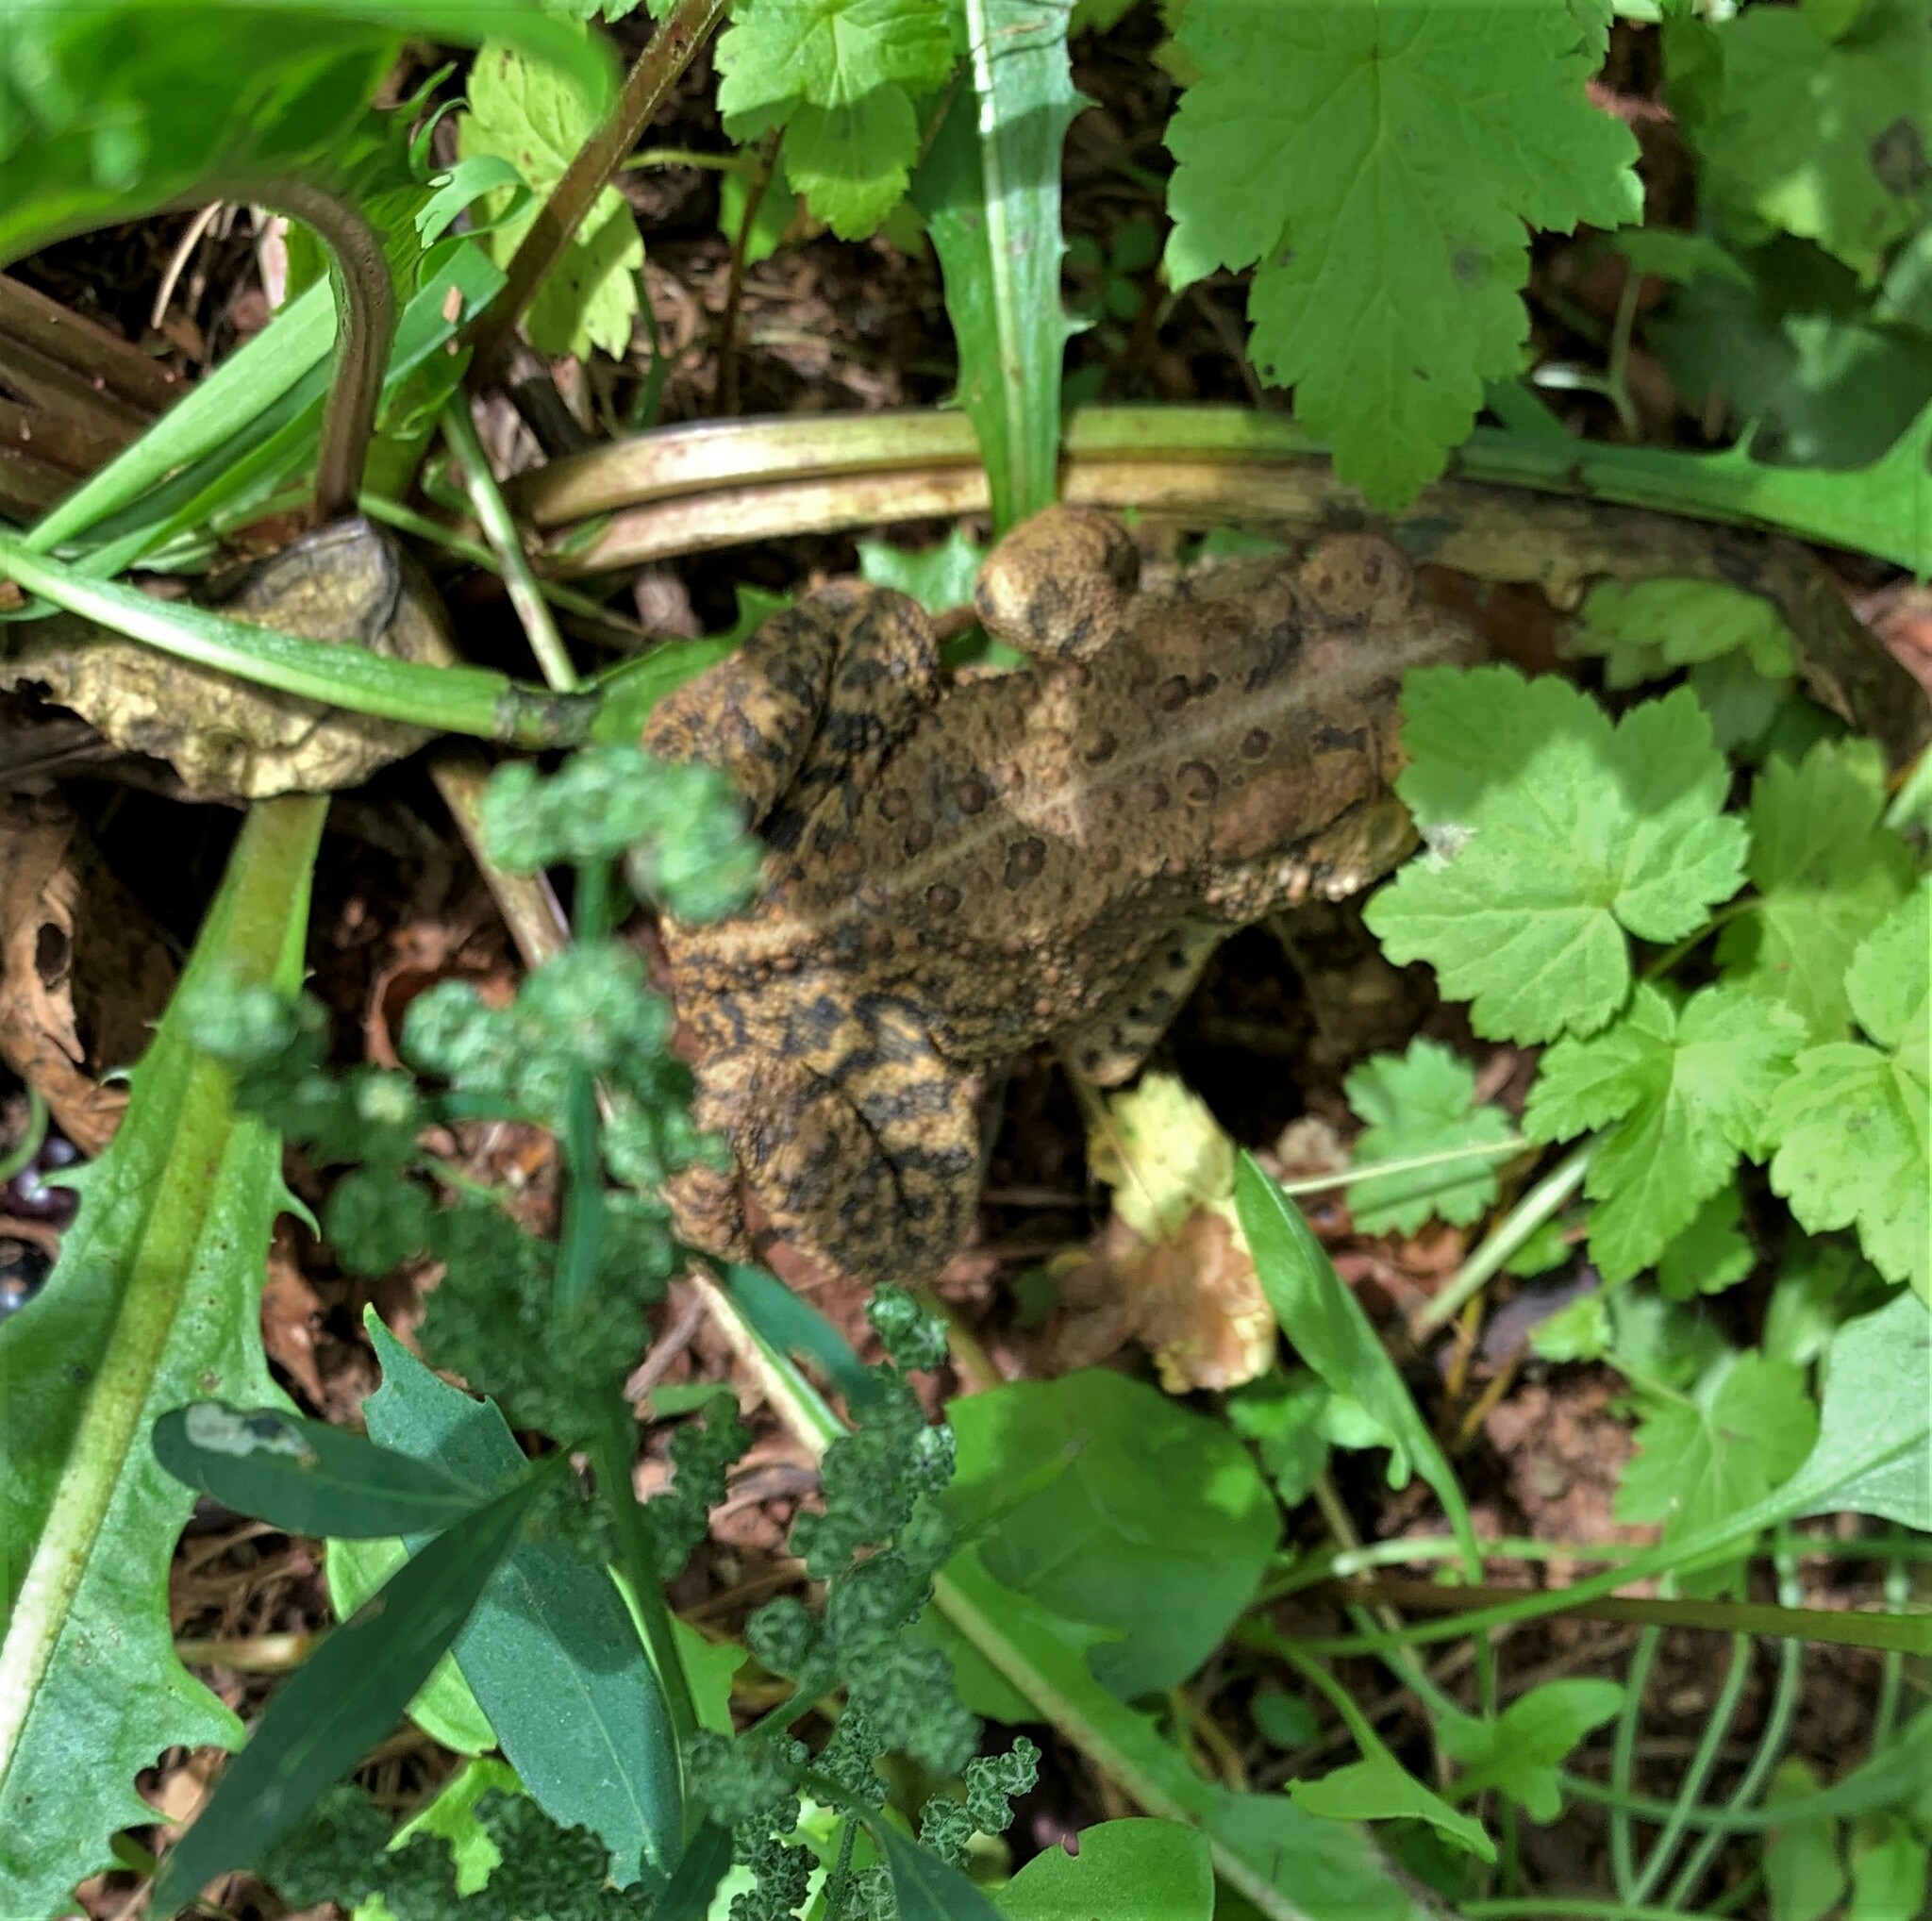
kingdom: Animalia
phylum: Chordata
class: Amphibia
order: Anura
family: Bufonidae
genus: Anaxyrus
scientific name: Anaxyrus americanus
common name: American toad
